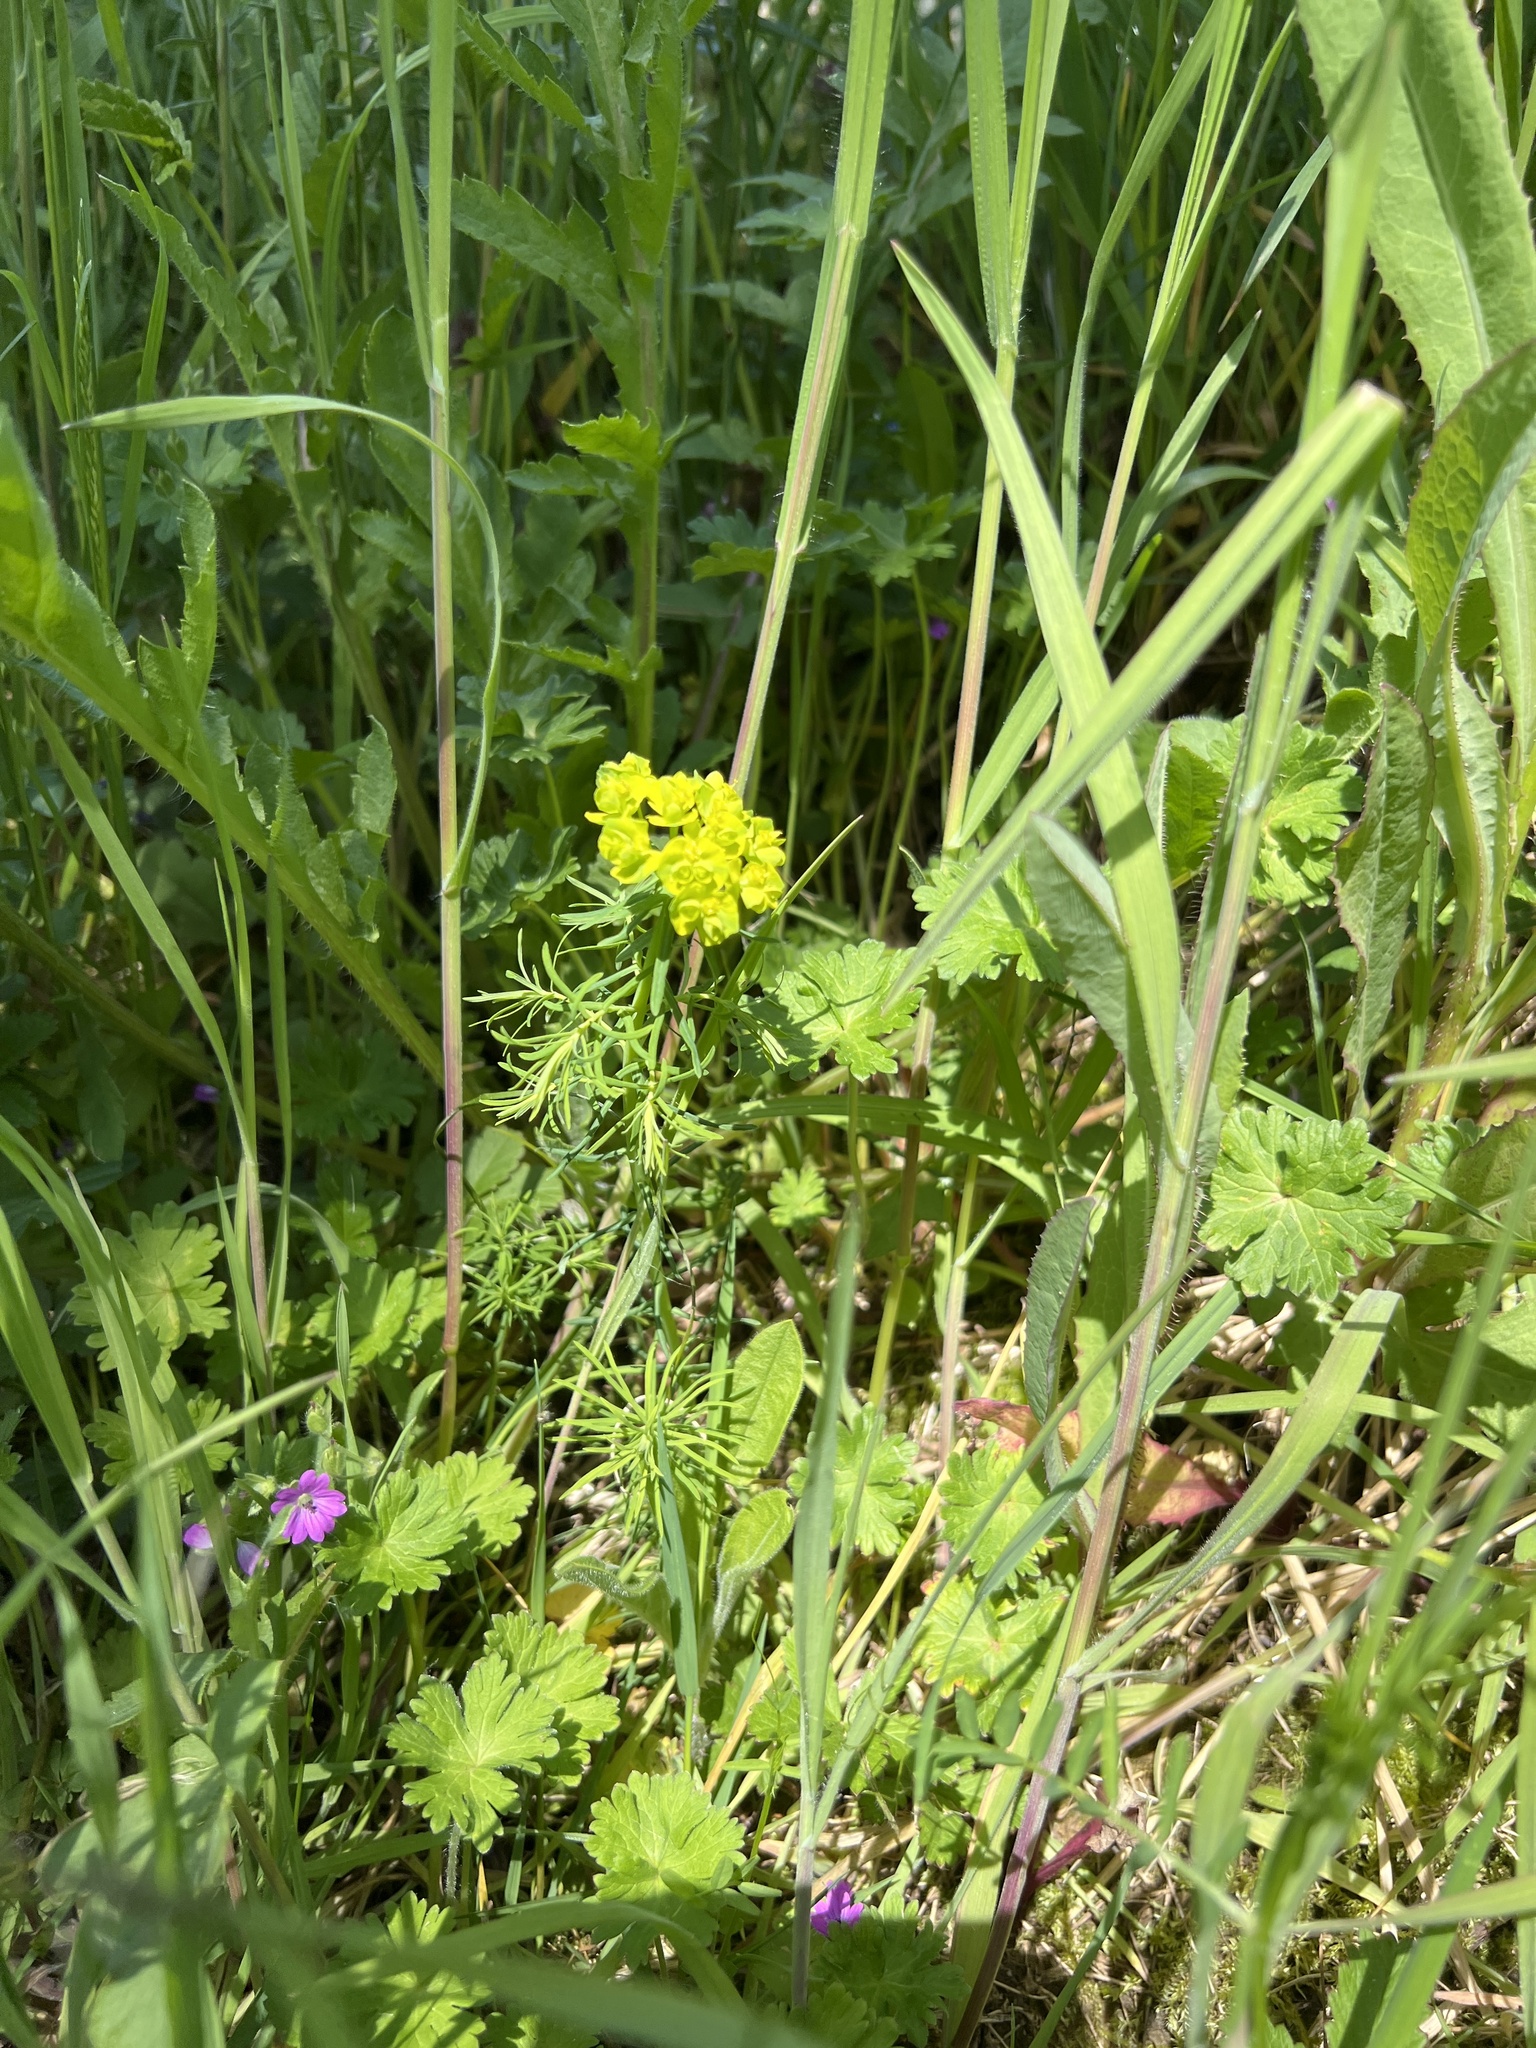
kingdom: Plantae
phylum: Tracheophyta
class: Magnoliopsida
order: Malpighiales
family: Euphorbiaceae
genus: Euphorbia
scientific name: Euphorbia cyparissias
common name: Cypress spurge
